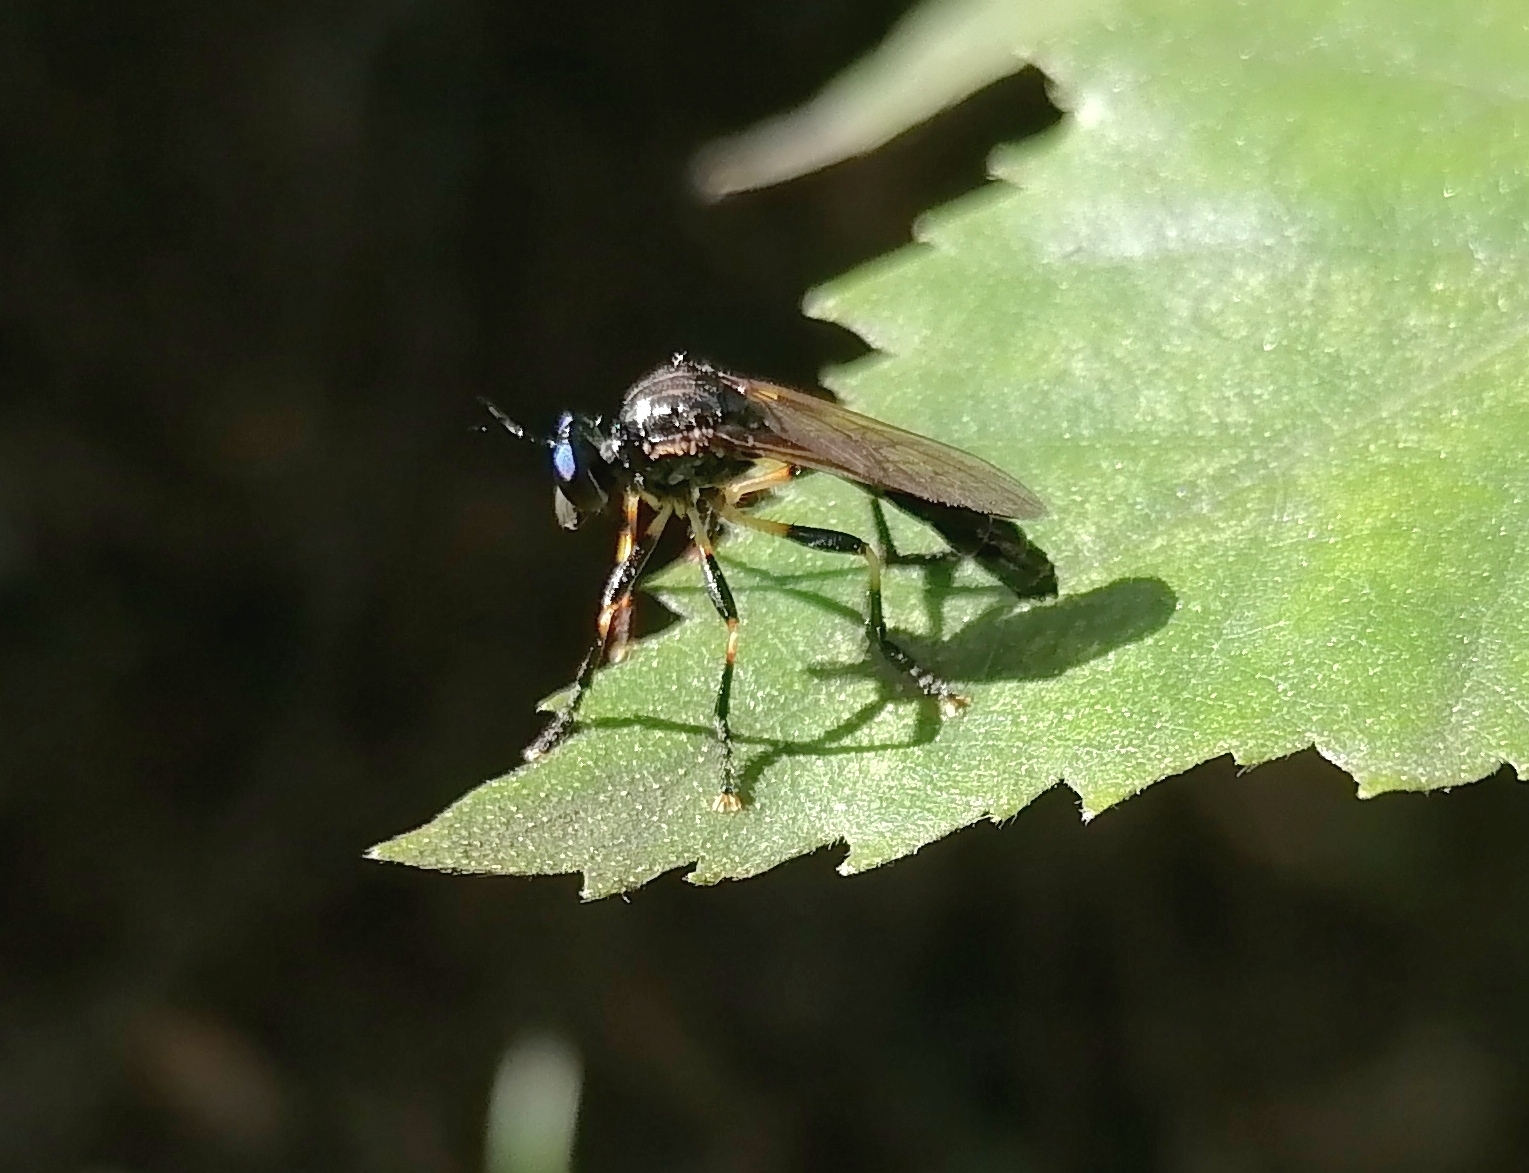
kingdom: Animalia
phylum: Arthropoda
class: Insecta
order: Diptera
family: Asilidae
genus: Dioctria
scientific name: Dioctria cothurnata
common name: Scarce red-legged robberfly
